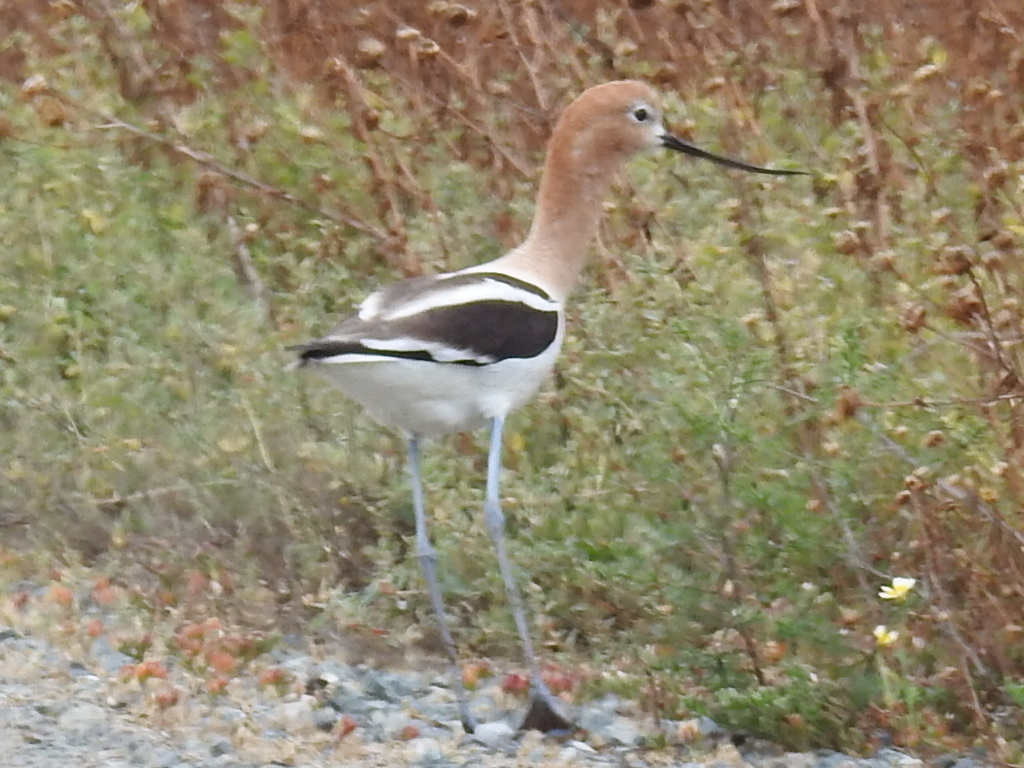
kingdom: Animalia
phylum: Chordata
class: Aves
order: Charadriiformes
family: Recurvirostridae
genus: Recurvirostra
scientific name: Recurvirostra americana
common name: American avocet
